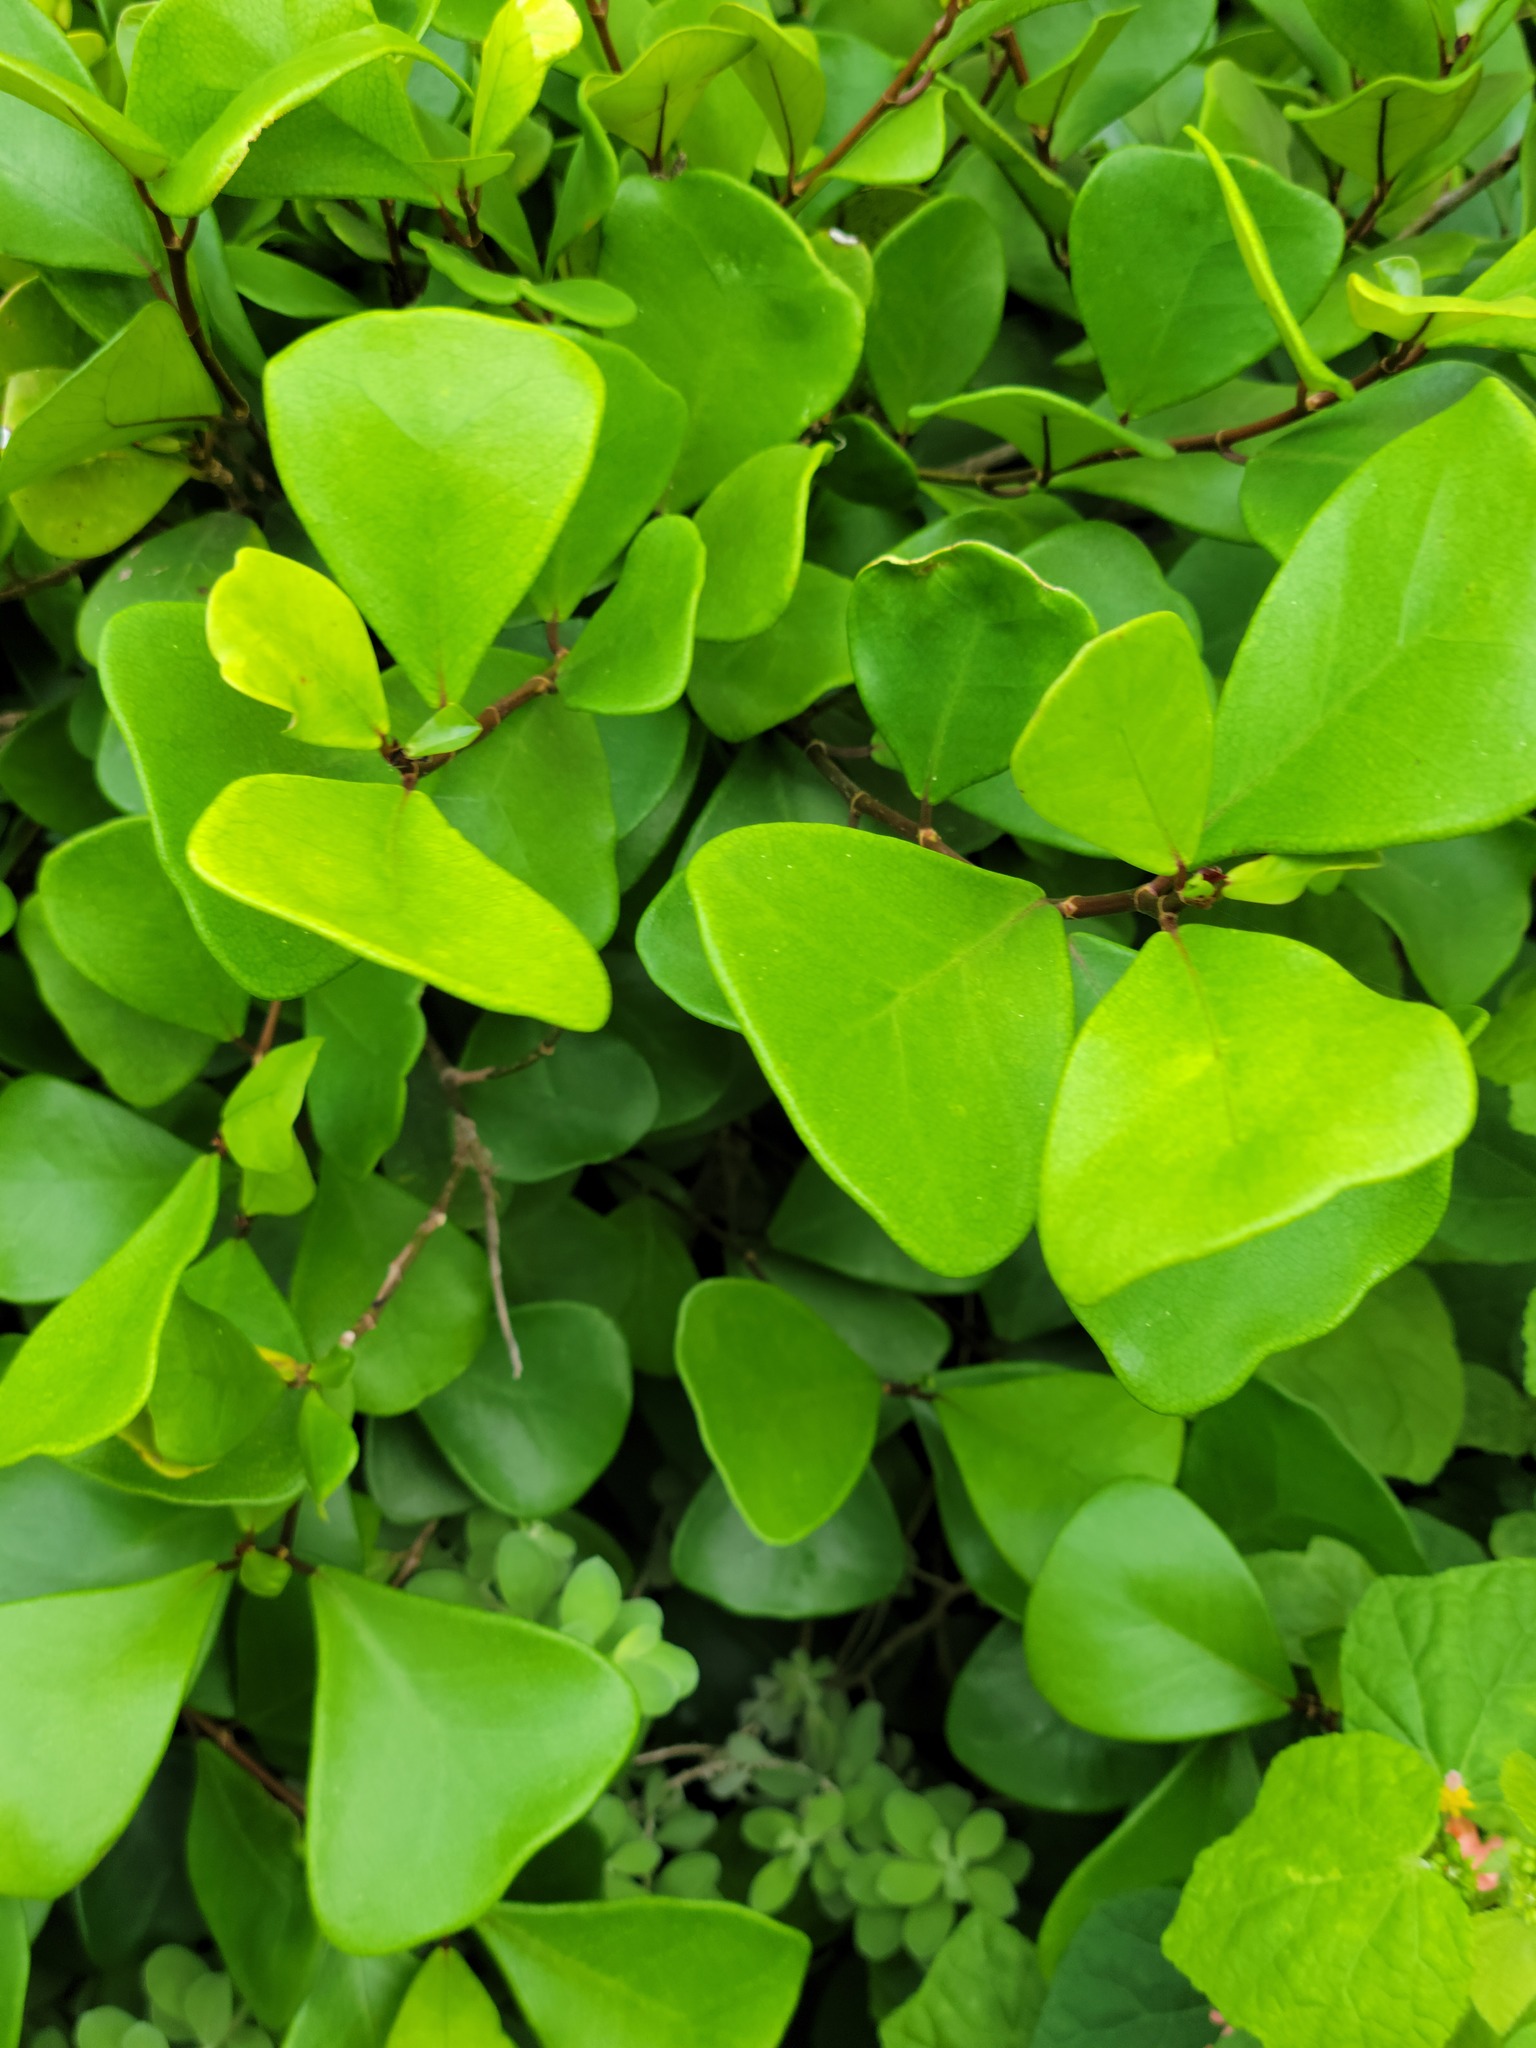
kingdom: Plantae
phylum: Tracheophyta
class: Magnoliopsida
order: Rosales
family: Moraceae
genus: Ficus
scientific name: Ficus natalensis
